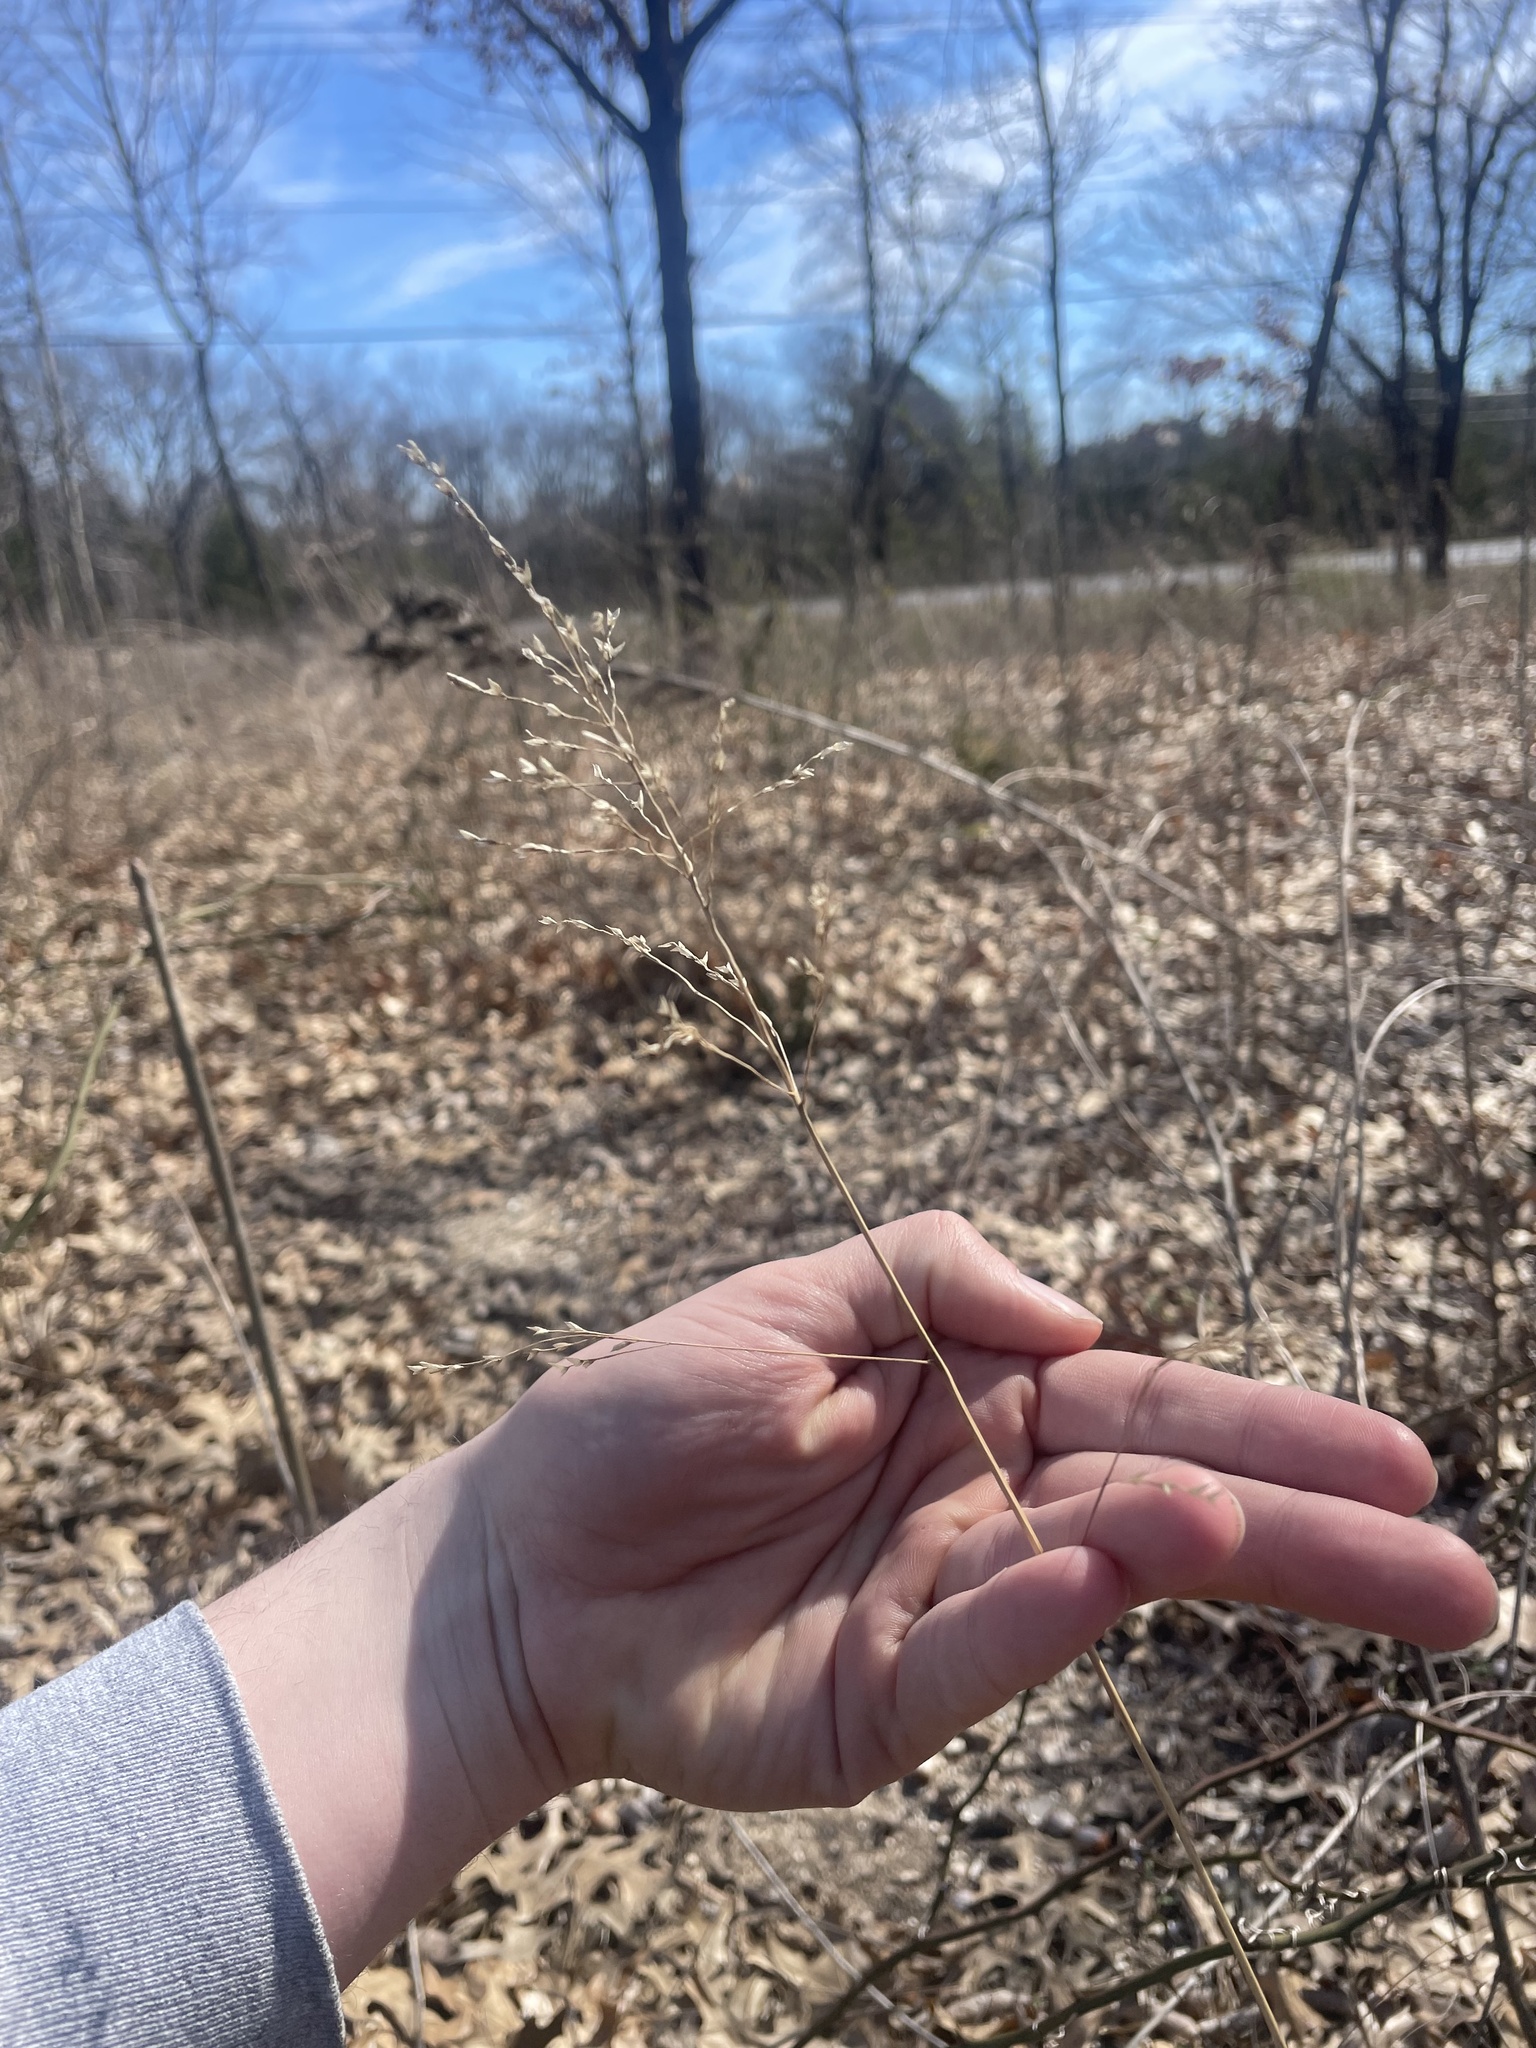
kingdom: Plantae
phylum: Tracheophyta
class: Liliopsida
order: Poales
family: Poaceae
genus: Tridens
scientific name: Tridens flavus
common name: Purpletop
